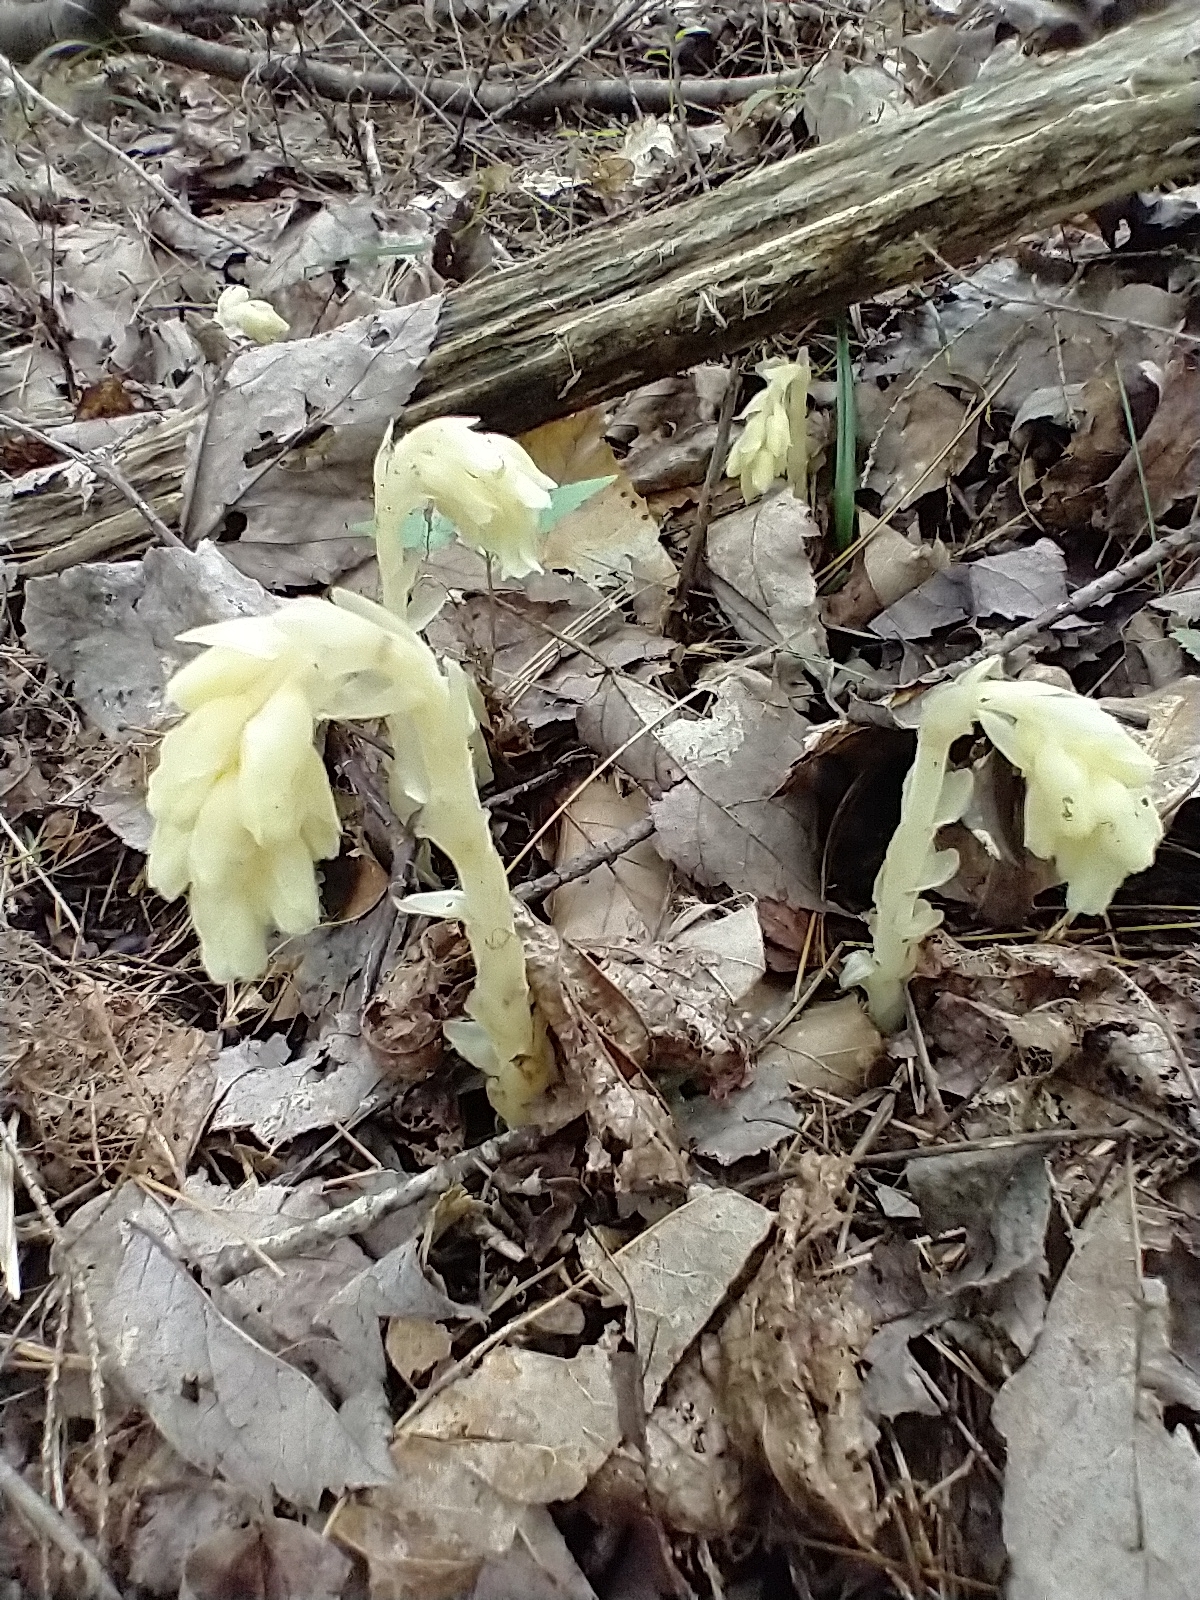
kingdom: Plantae
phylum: Tracheophyta
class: Magnoliopsida
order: Ericales
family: Ericaceae
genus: Hypopitys
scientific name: Hypopitys monotropa
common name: Yellow bird's-nest
